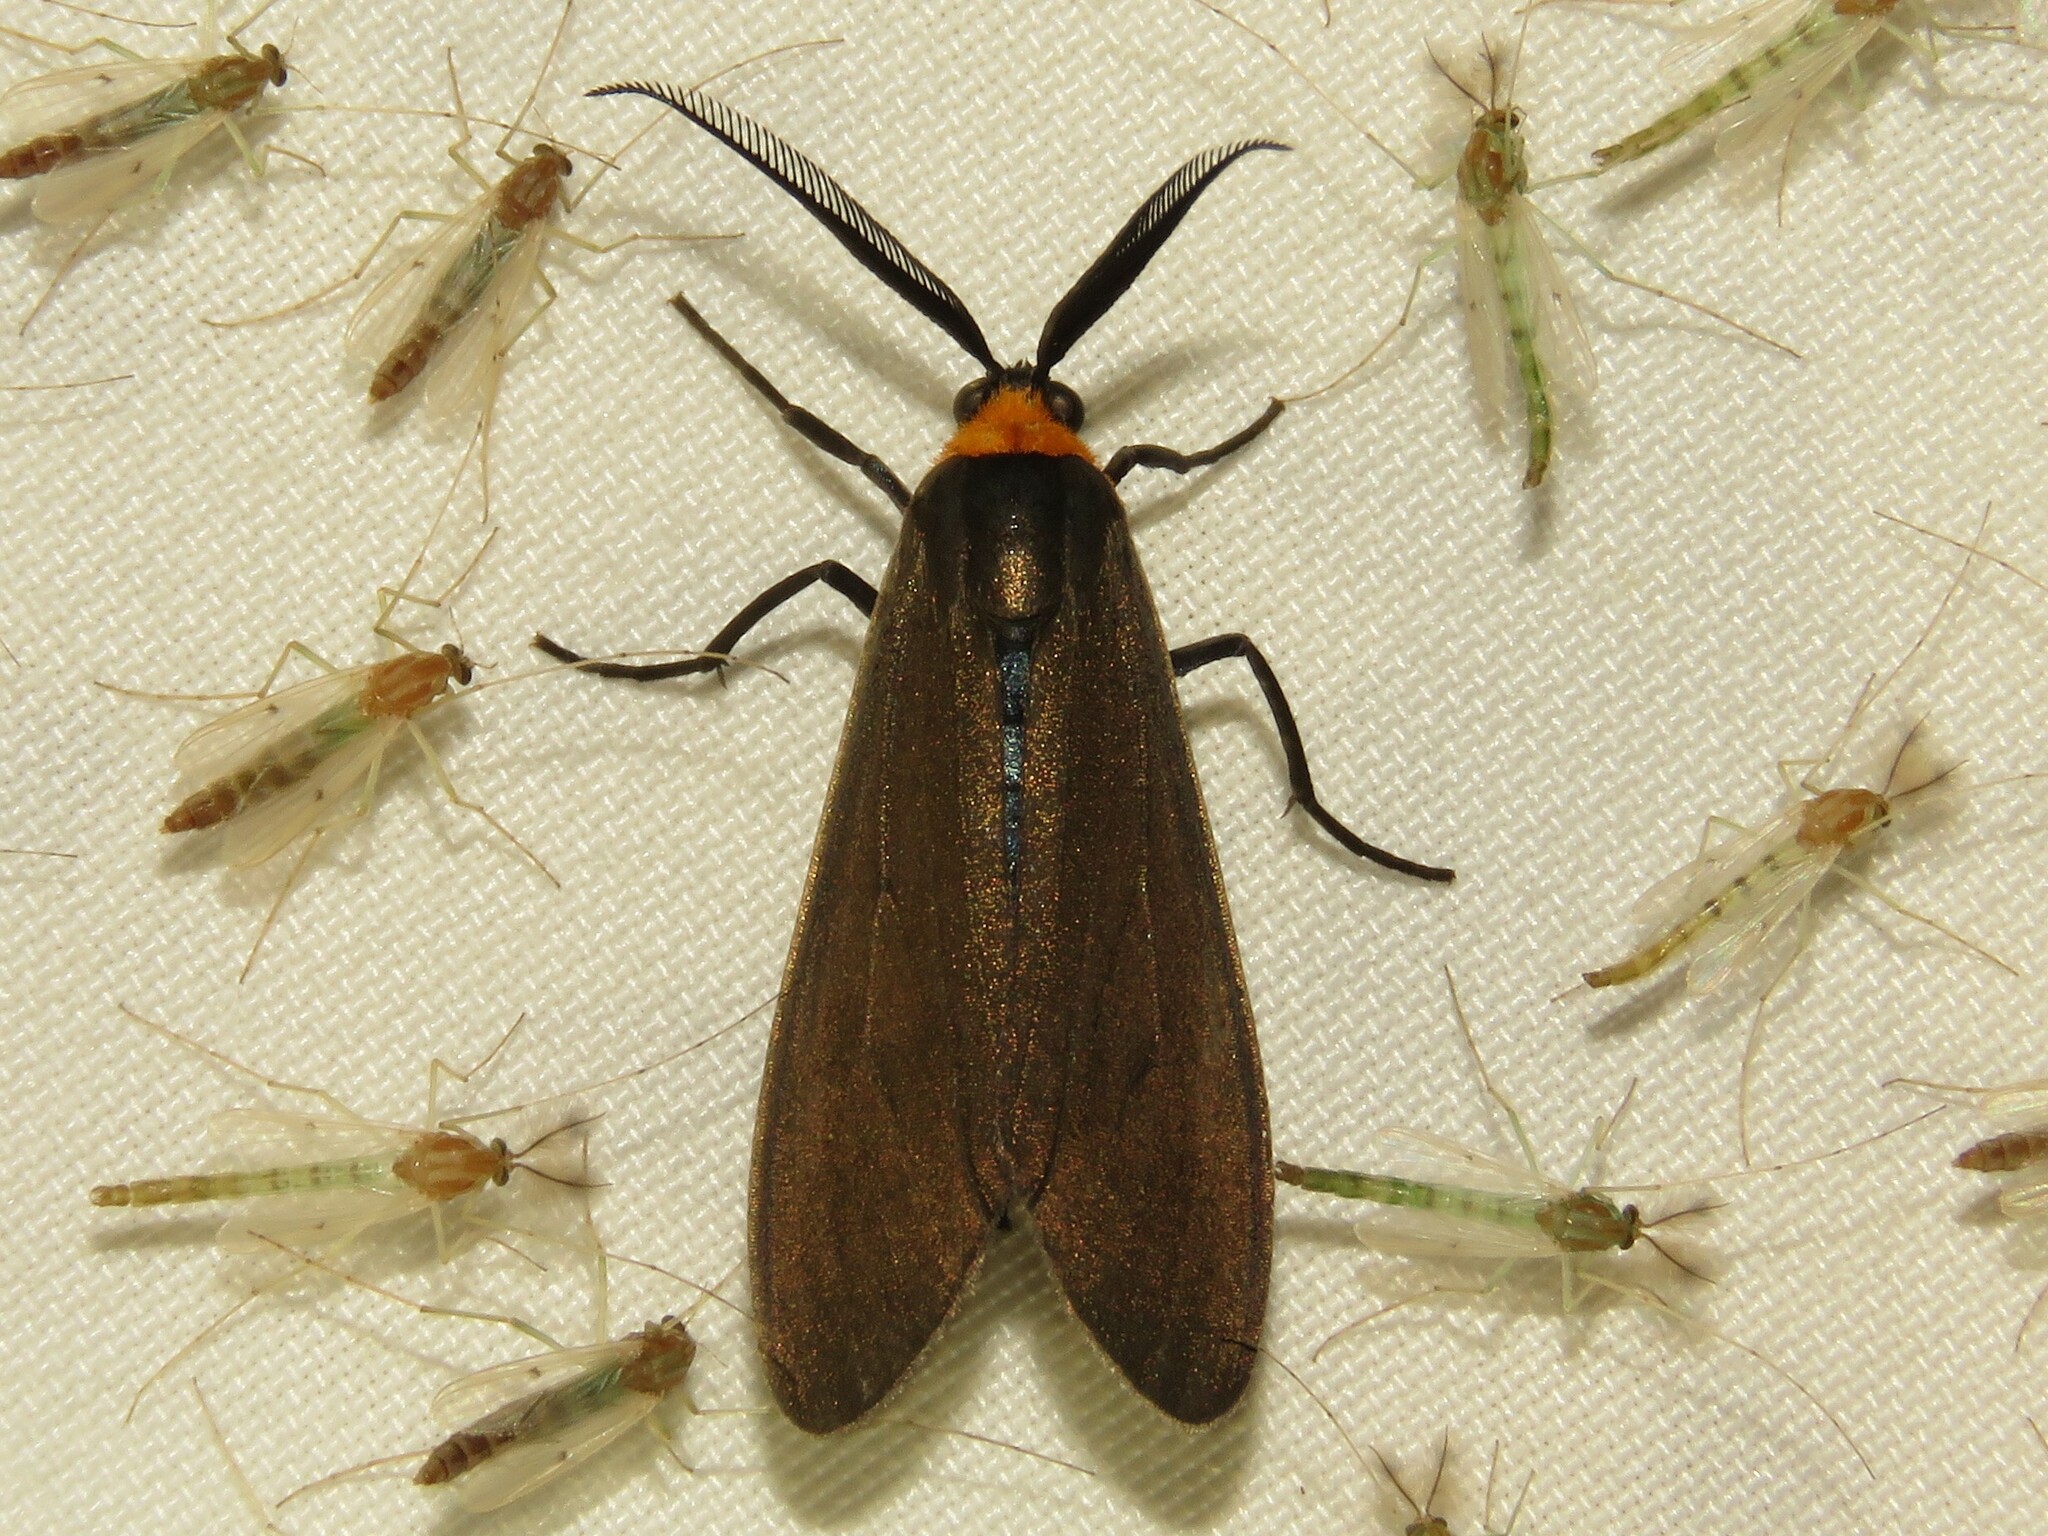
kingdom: Animalia
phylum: Arthropoda
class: Insecta
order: Lepidoptera
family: Erebidae
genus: Cisseps
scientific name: Cisseps fulvicollis
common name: Yellow-collared scape moth
